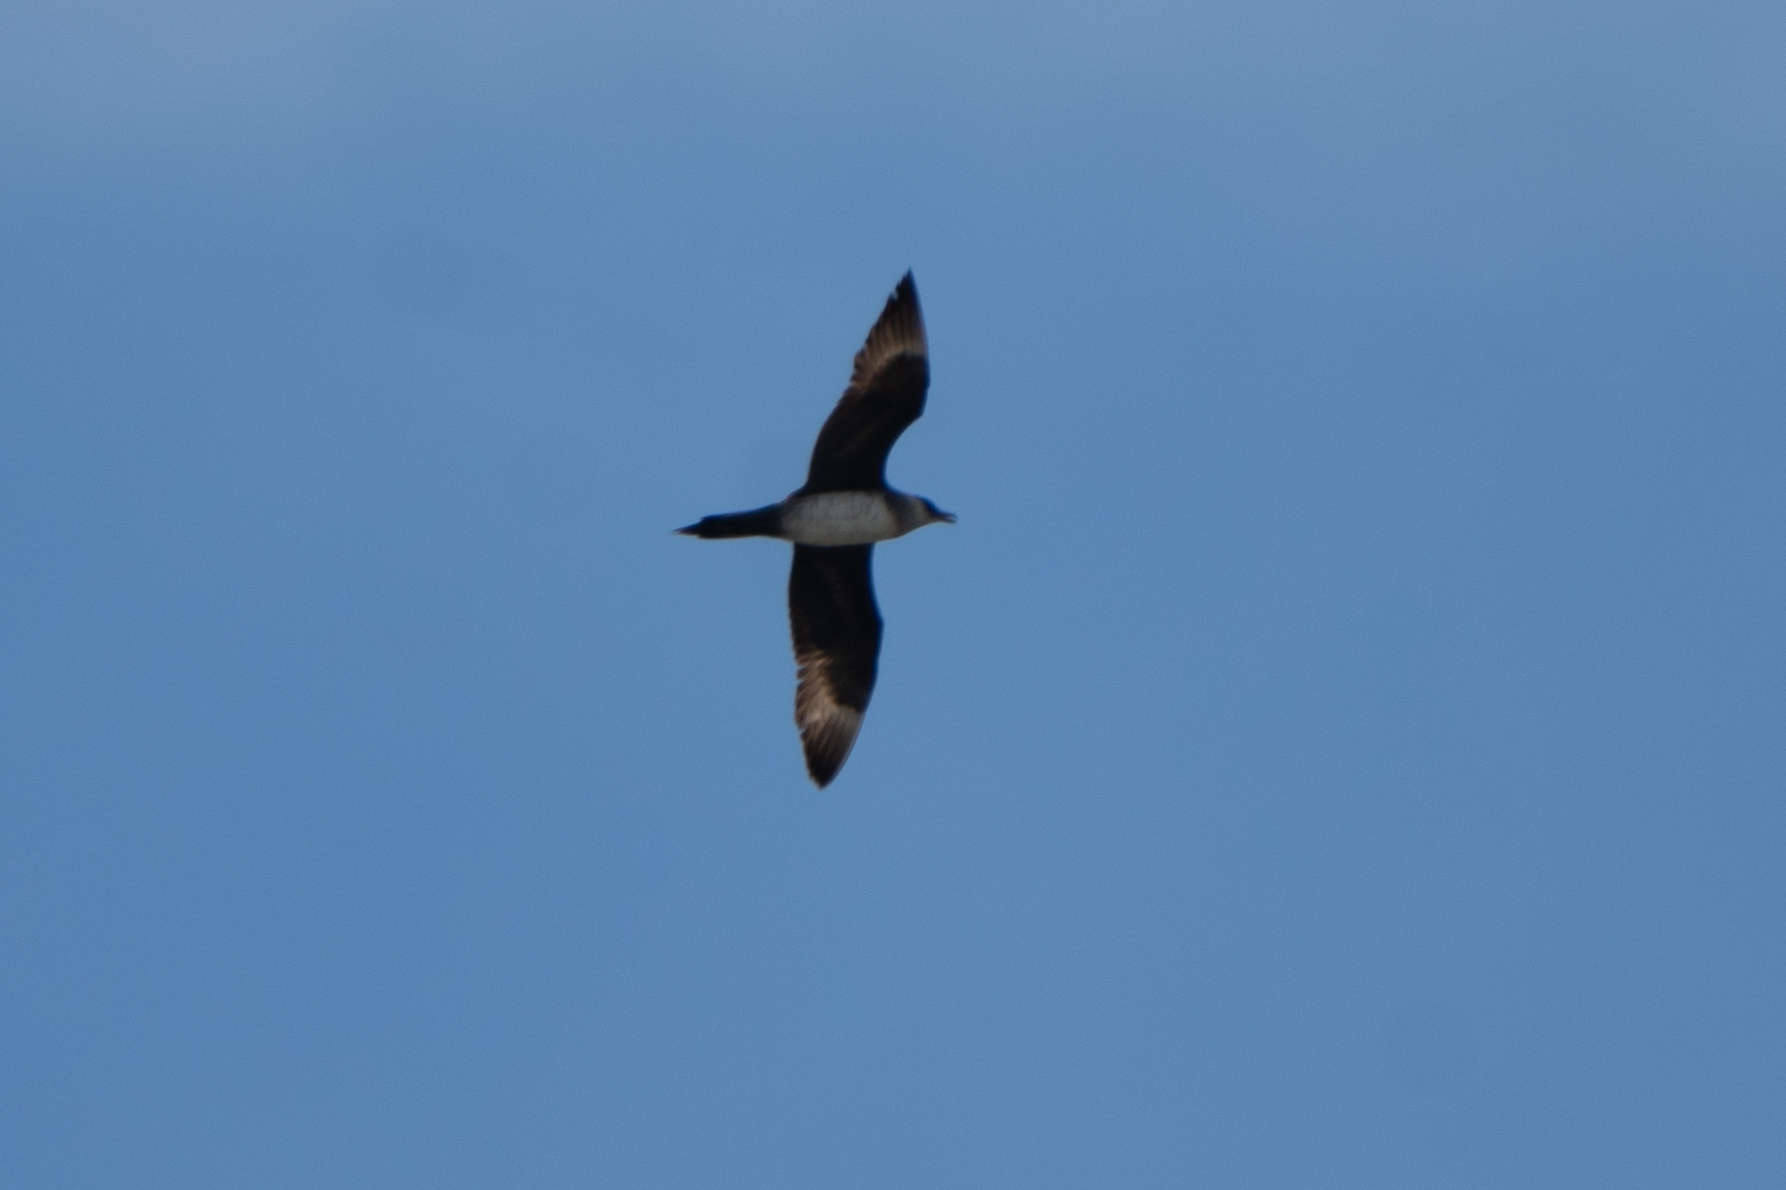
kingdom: Animalia
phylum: Chordata
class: Aves
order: Charadriiformes
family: Stercorariidae
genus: Stercorarius
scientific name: Stercorarius parasiticus
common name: Parasitic jaeger
